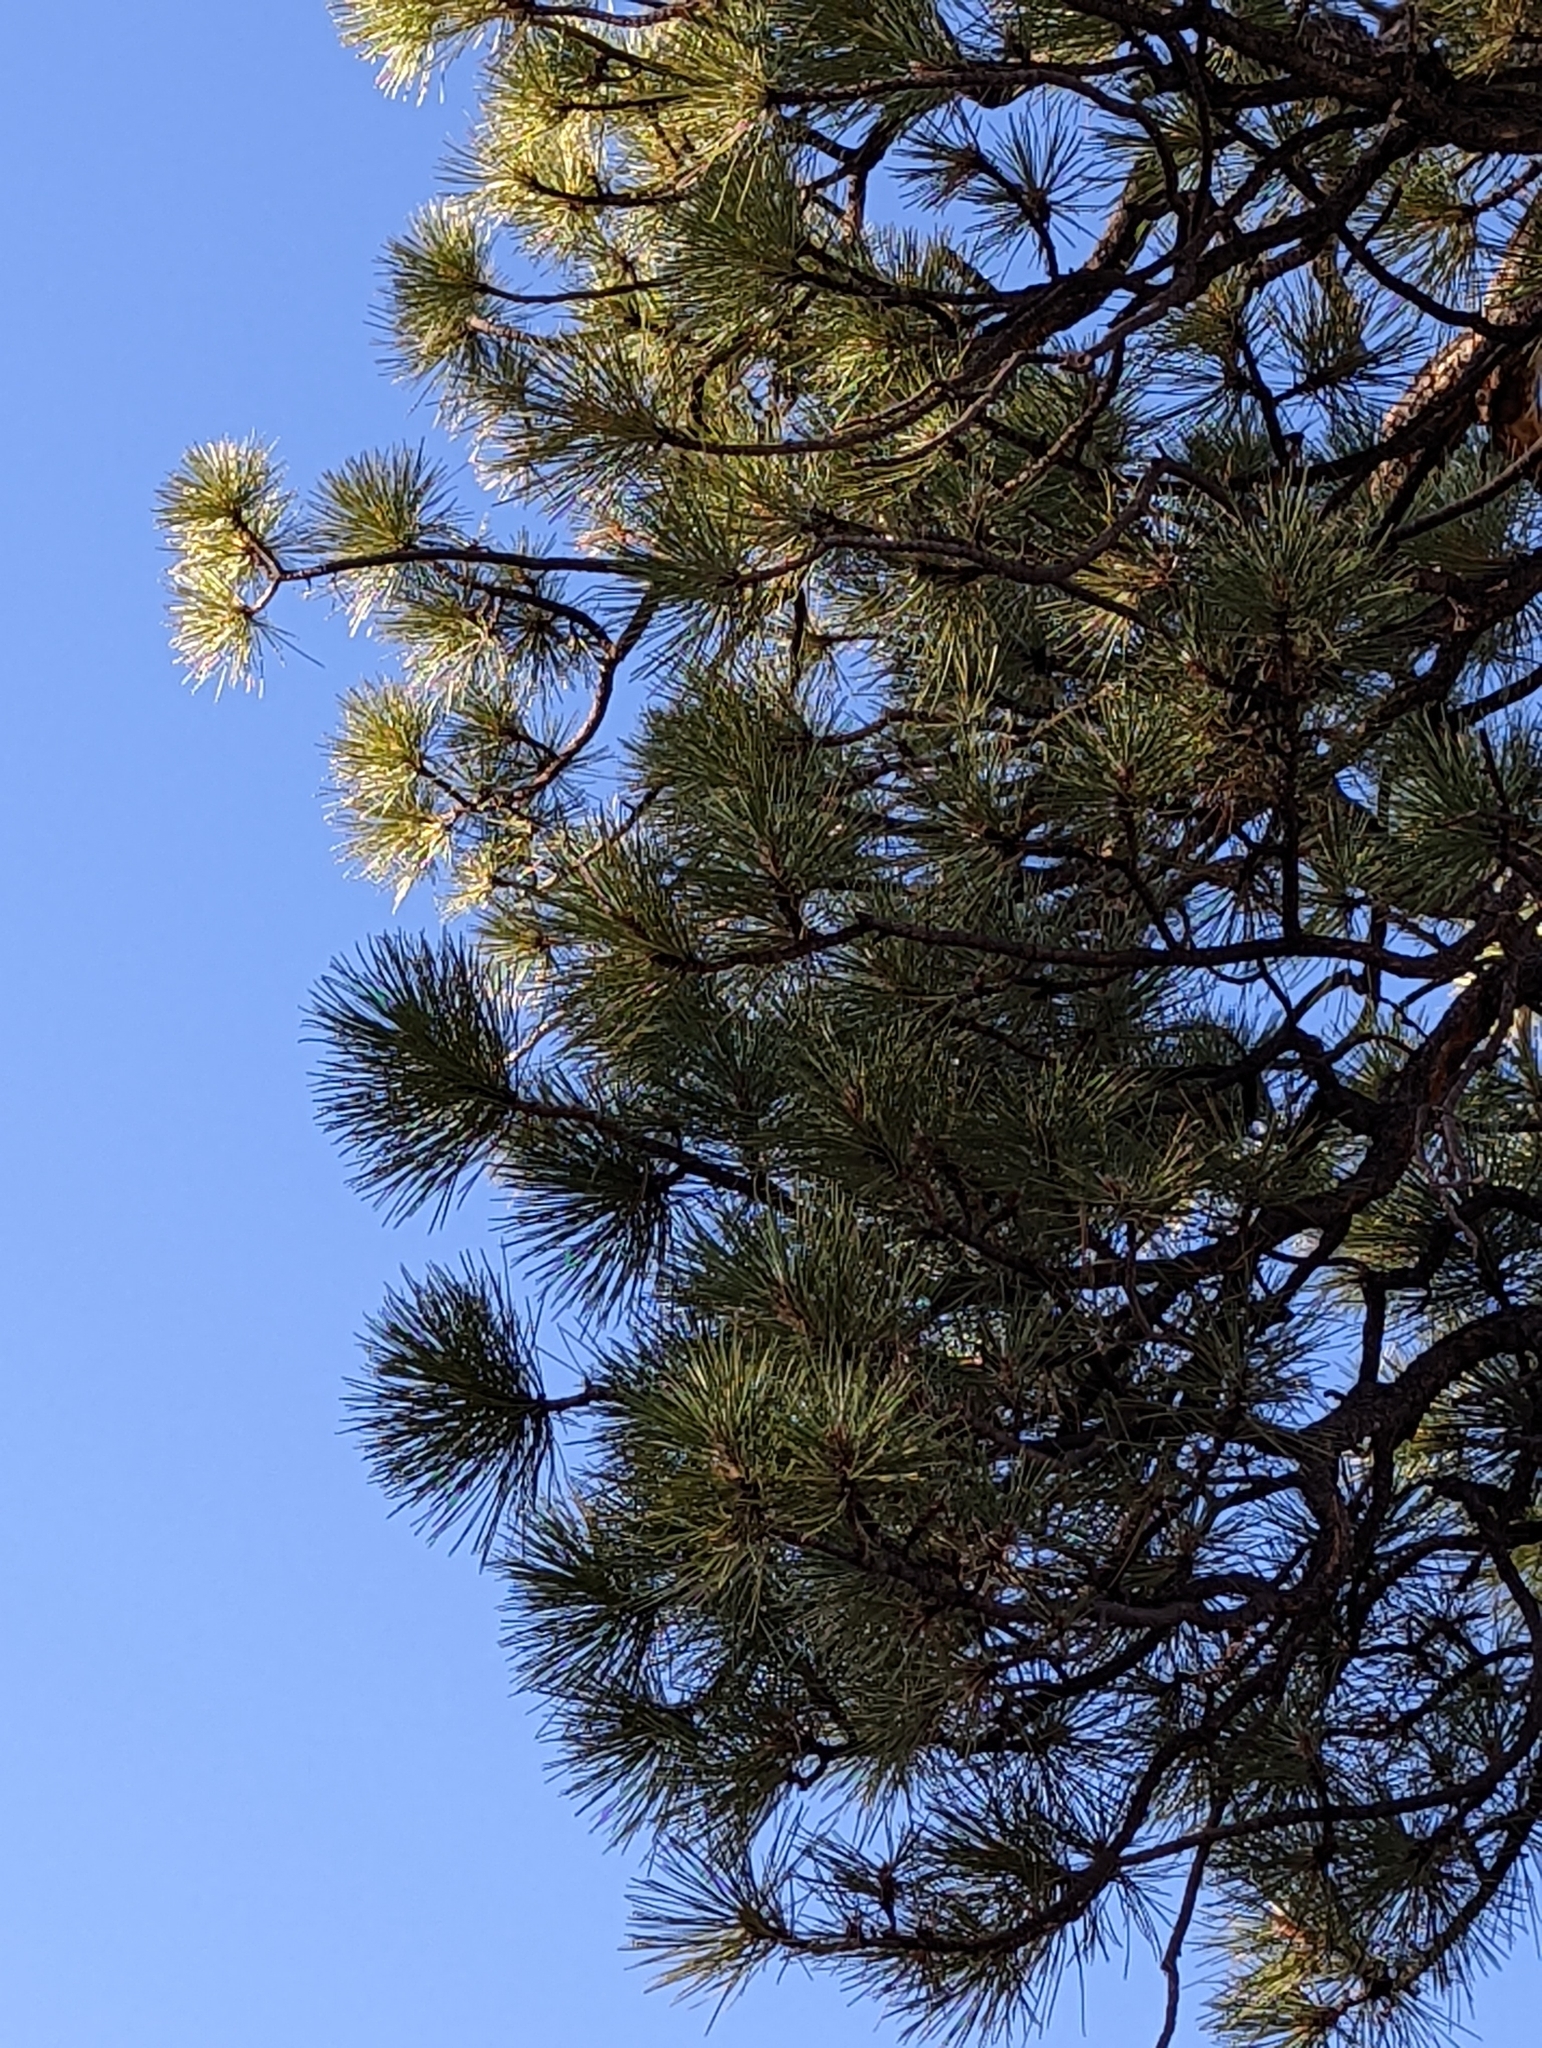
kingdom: Plantae
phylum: Tracheophyta
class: Pinopsida
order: Pinales
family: Pinaceae
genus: Pinus
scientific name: Pinus ponderosa
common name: Western yellow-pine
